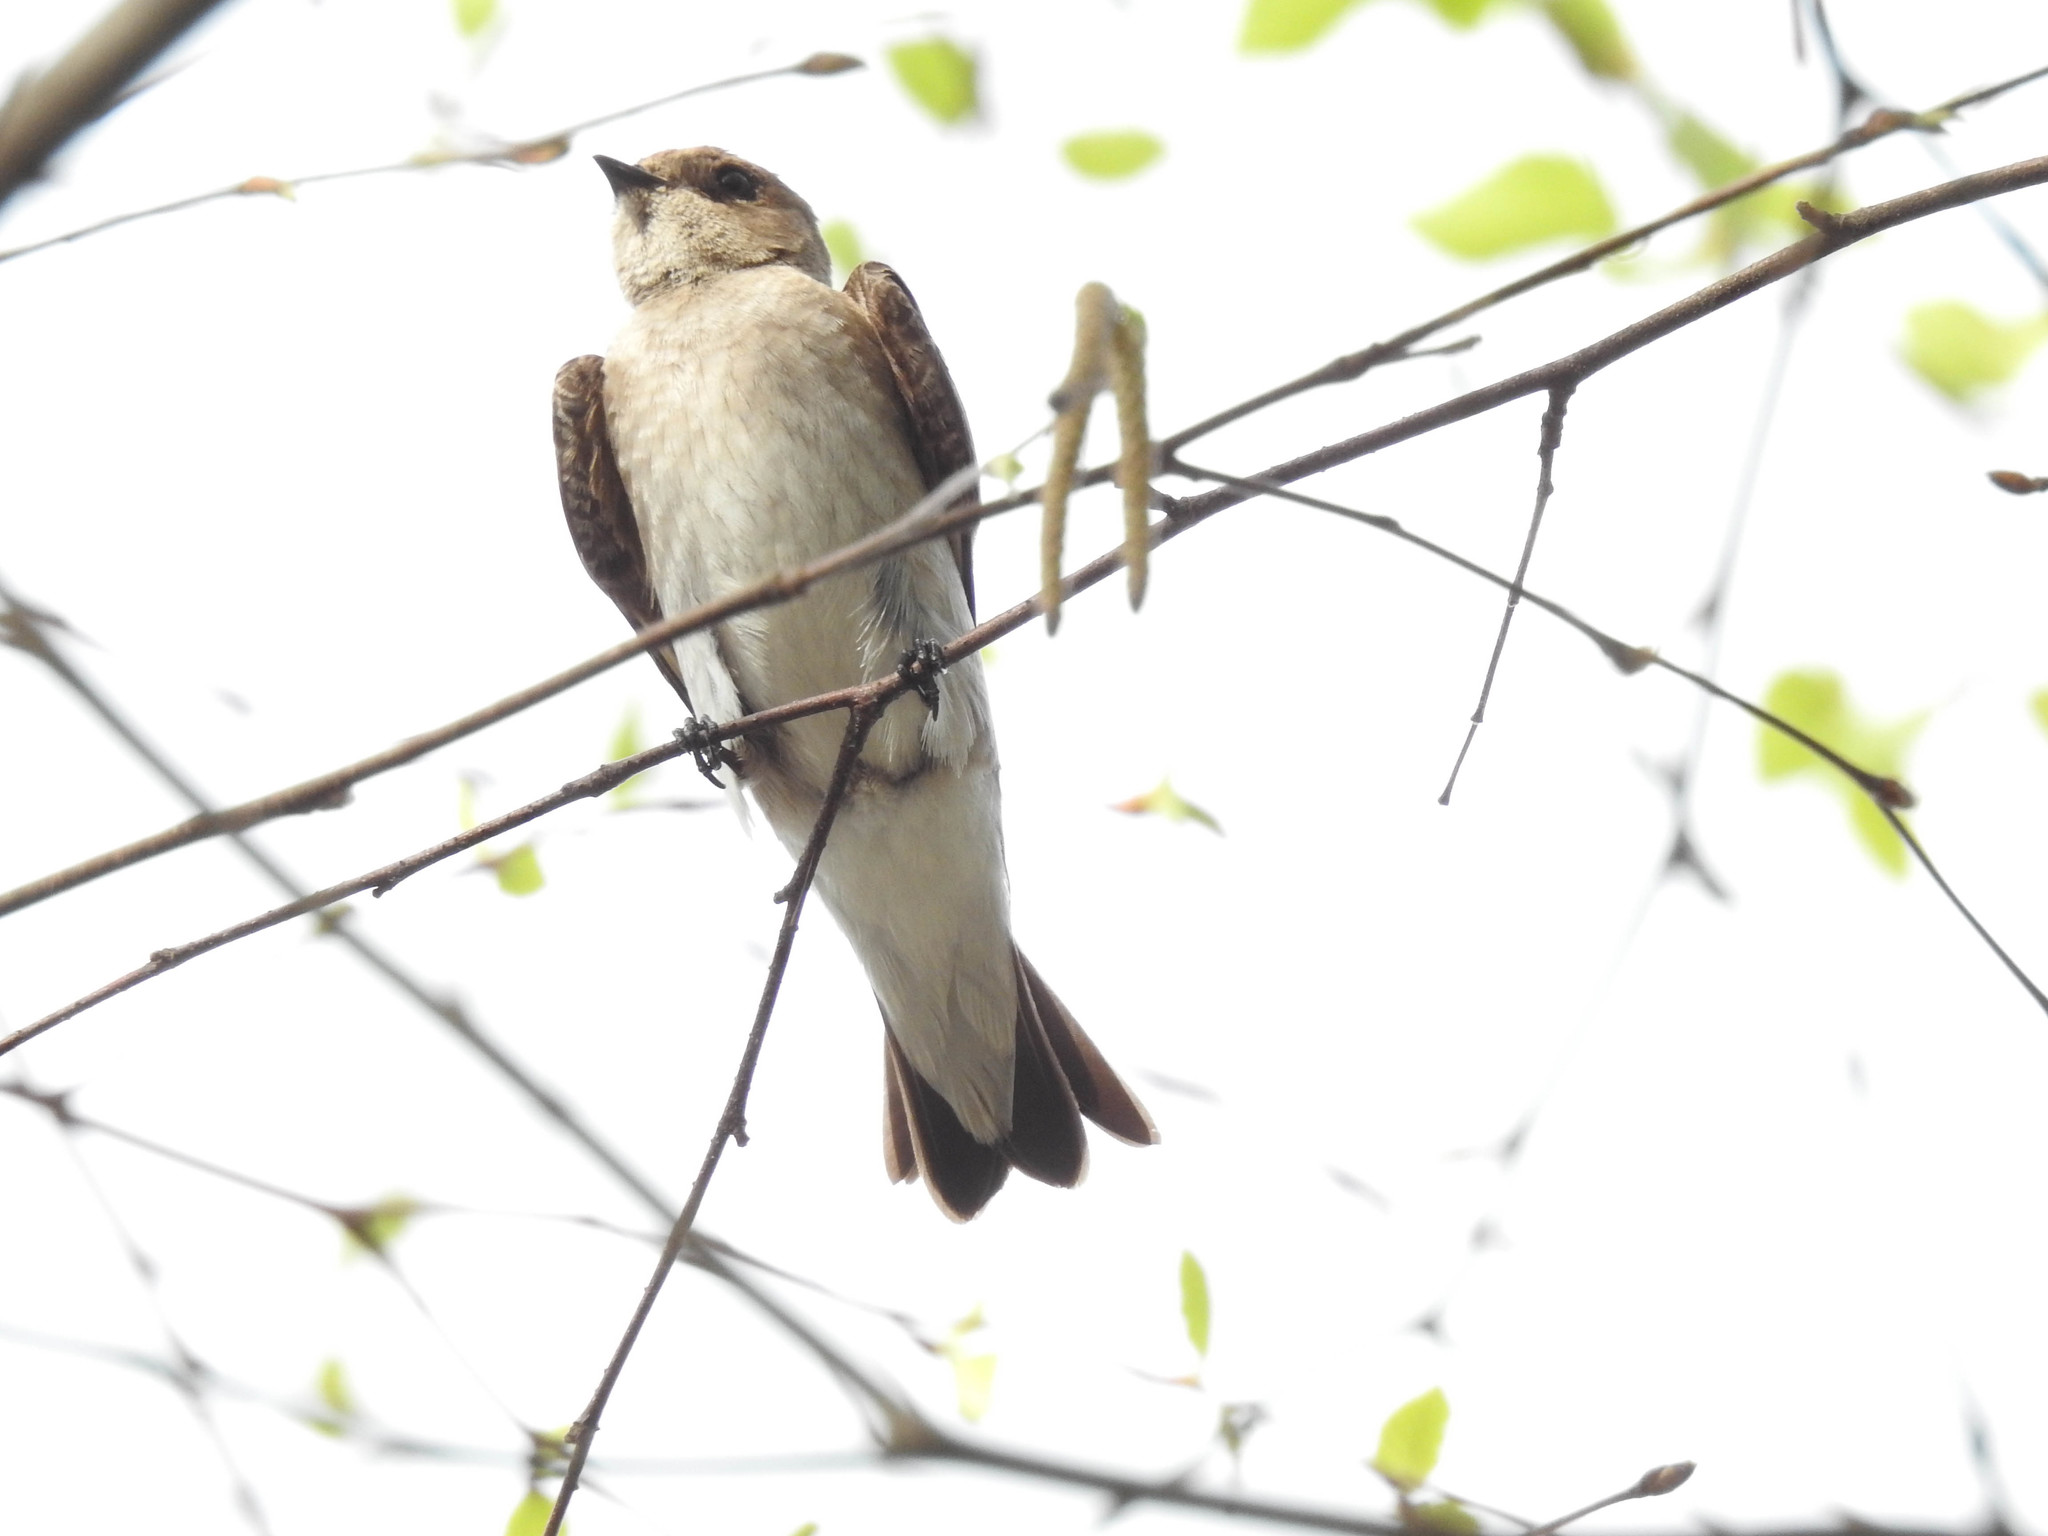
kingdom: Animalia
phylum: Chordata
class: Aves
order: Passeriformes
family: Hirundinidae
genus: Stelgidopteryx
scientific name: Stelgidopteryx serripennis
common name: Northern rough-winged swallow
